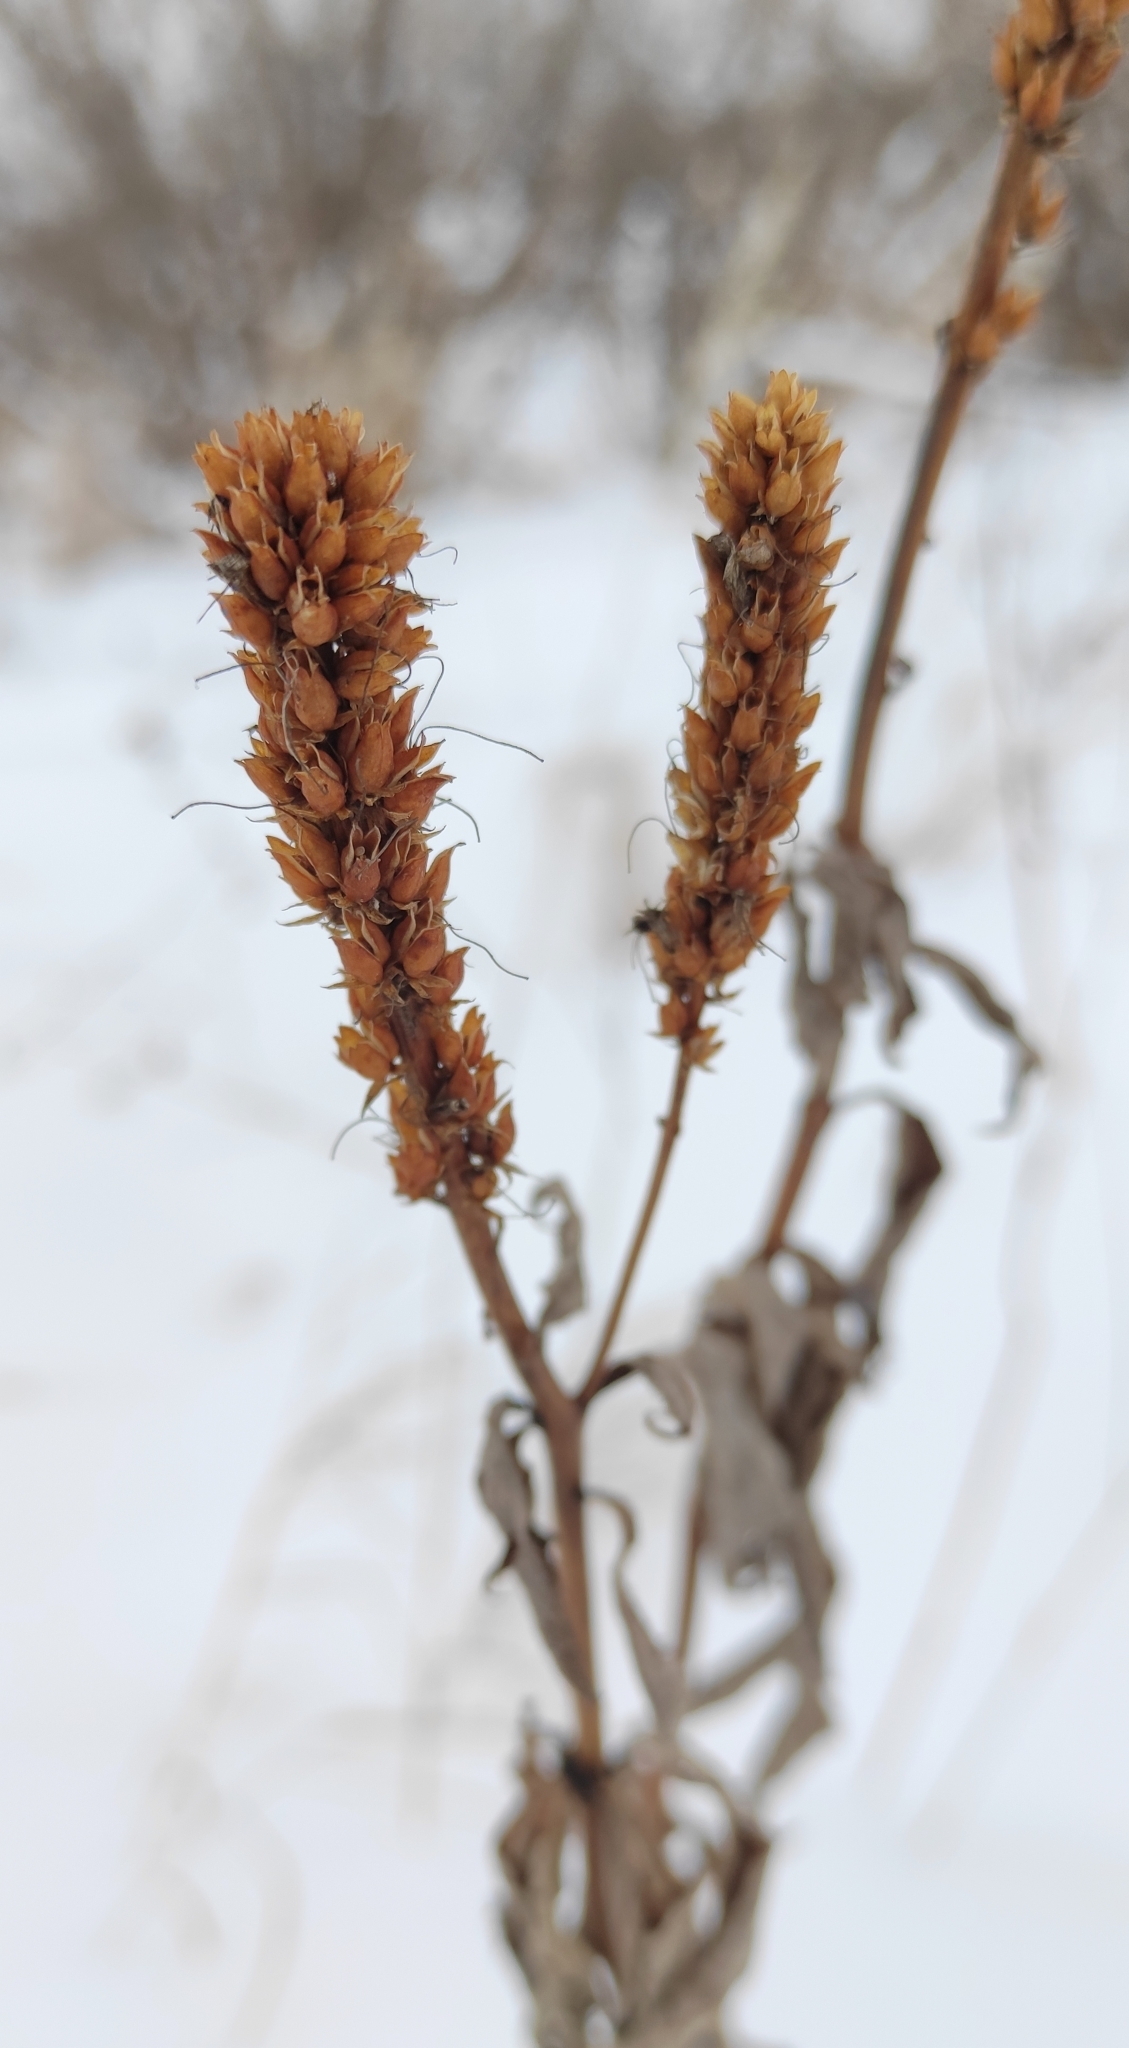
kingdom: Plantae
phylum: Tracheophyta
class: Magnoliopsida
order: Lamiales
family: Plantaginaceae
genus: Veronicastrum
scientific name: Veronicastrum sibiricum
